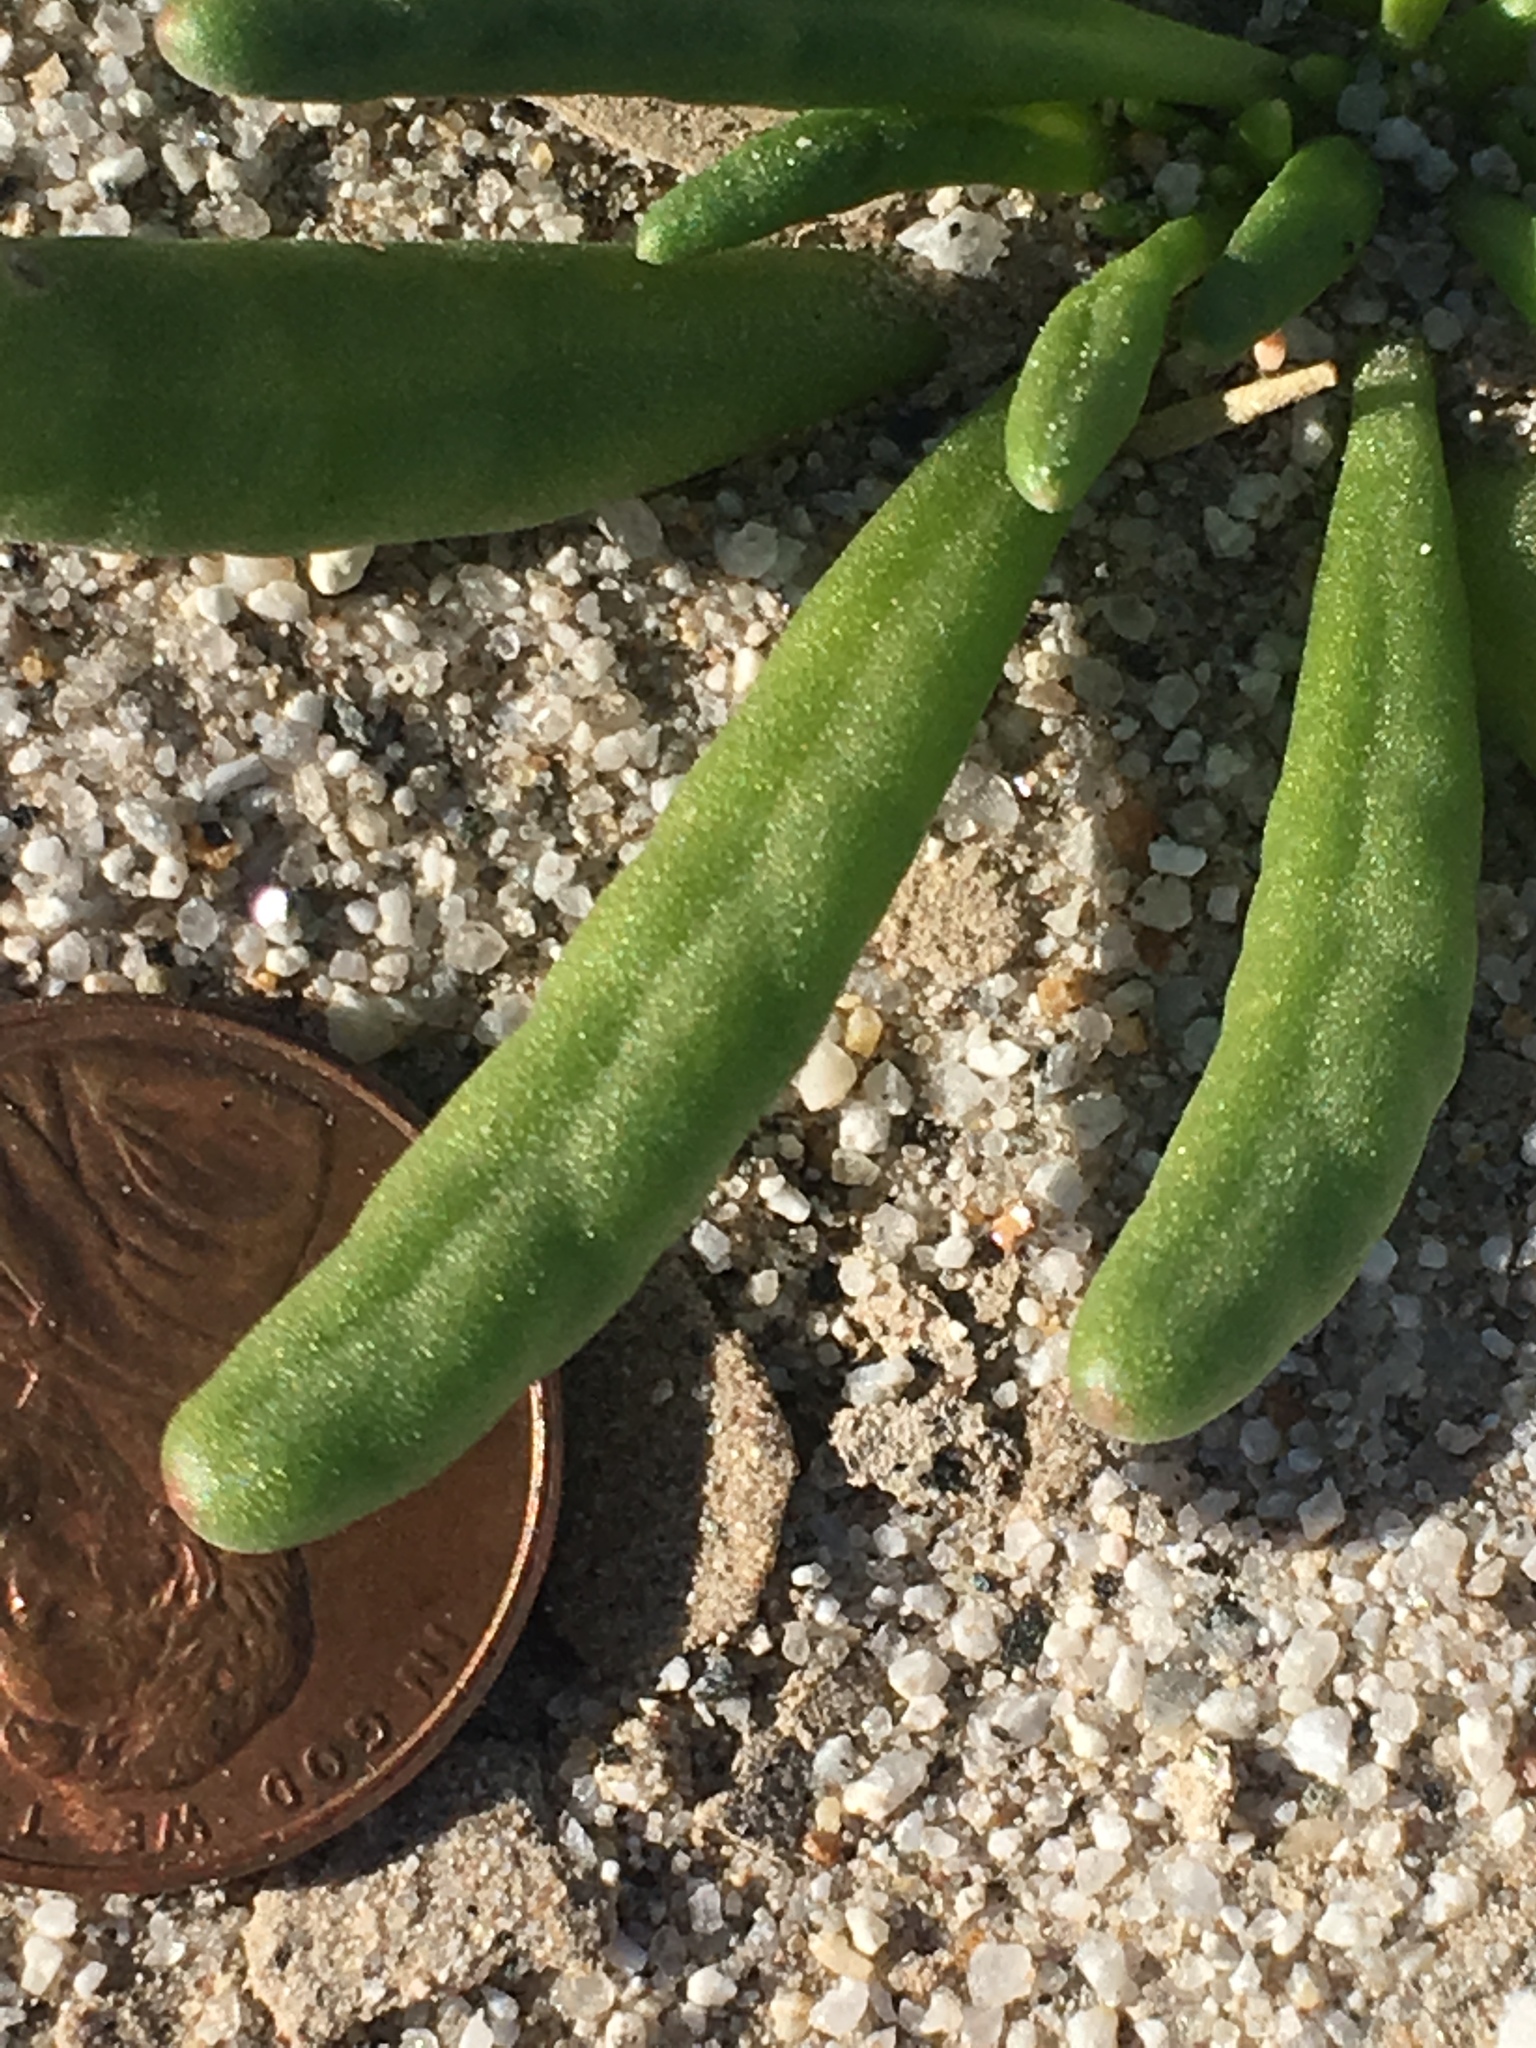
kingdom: Plantae
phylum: Tracheophyta
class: Magnoliopsida
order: Caryophyllales
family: Montiaceae
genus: Thingia
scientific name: Thingia ambigua
